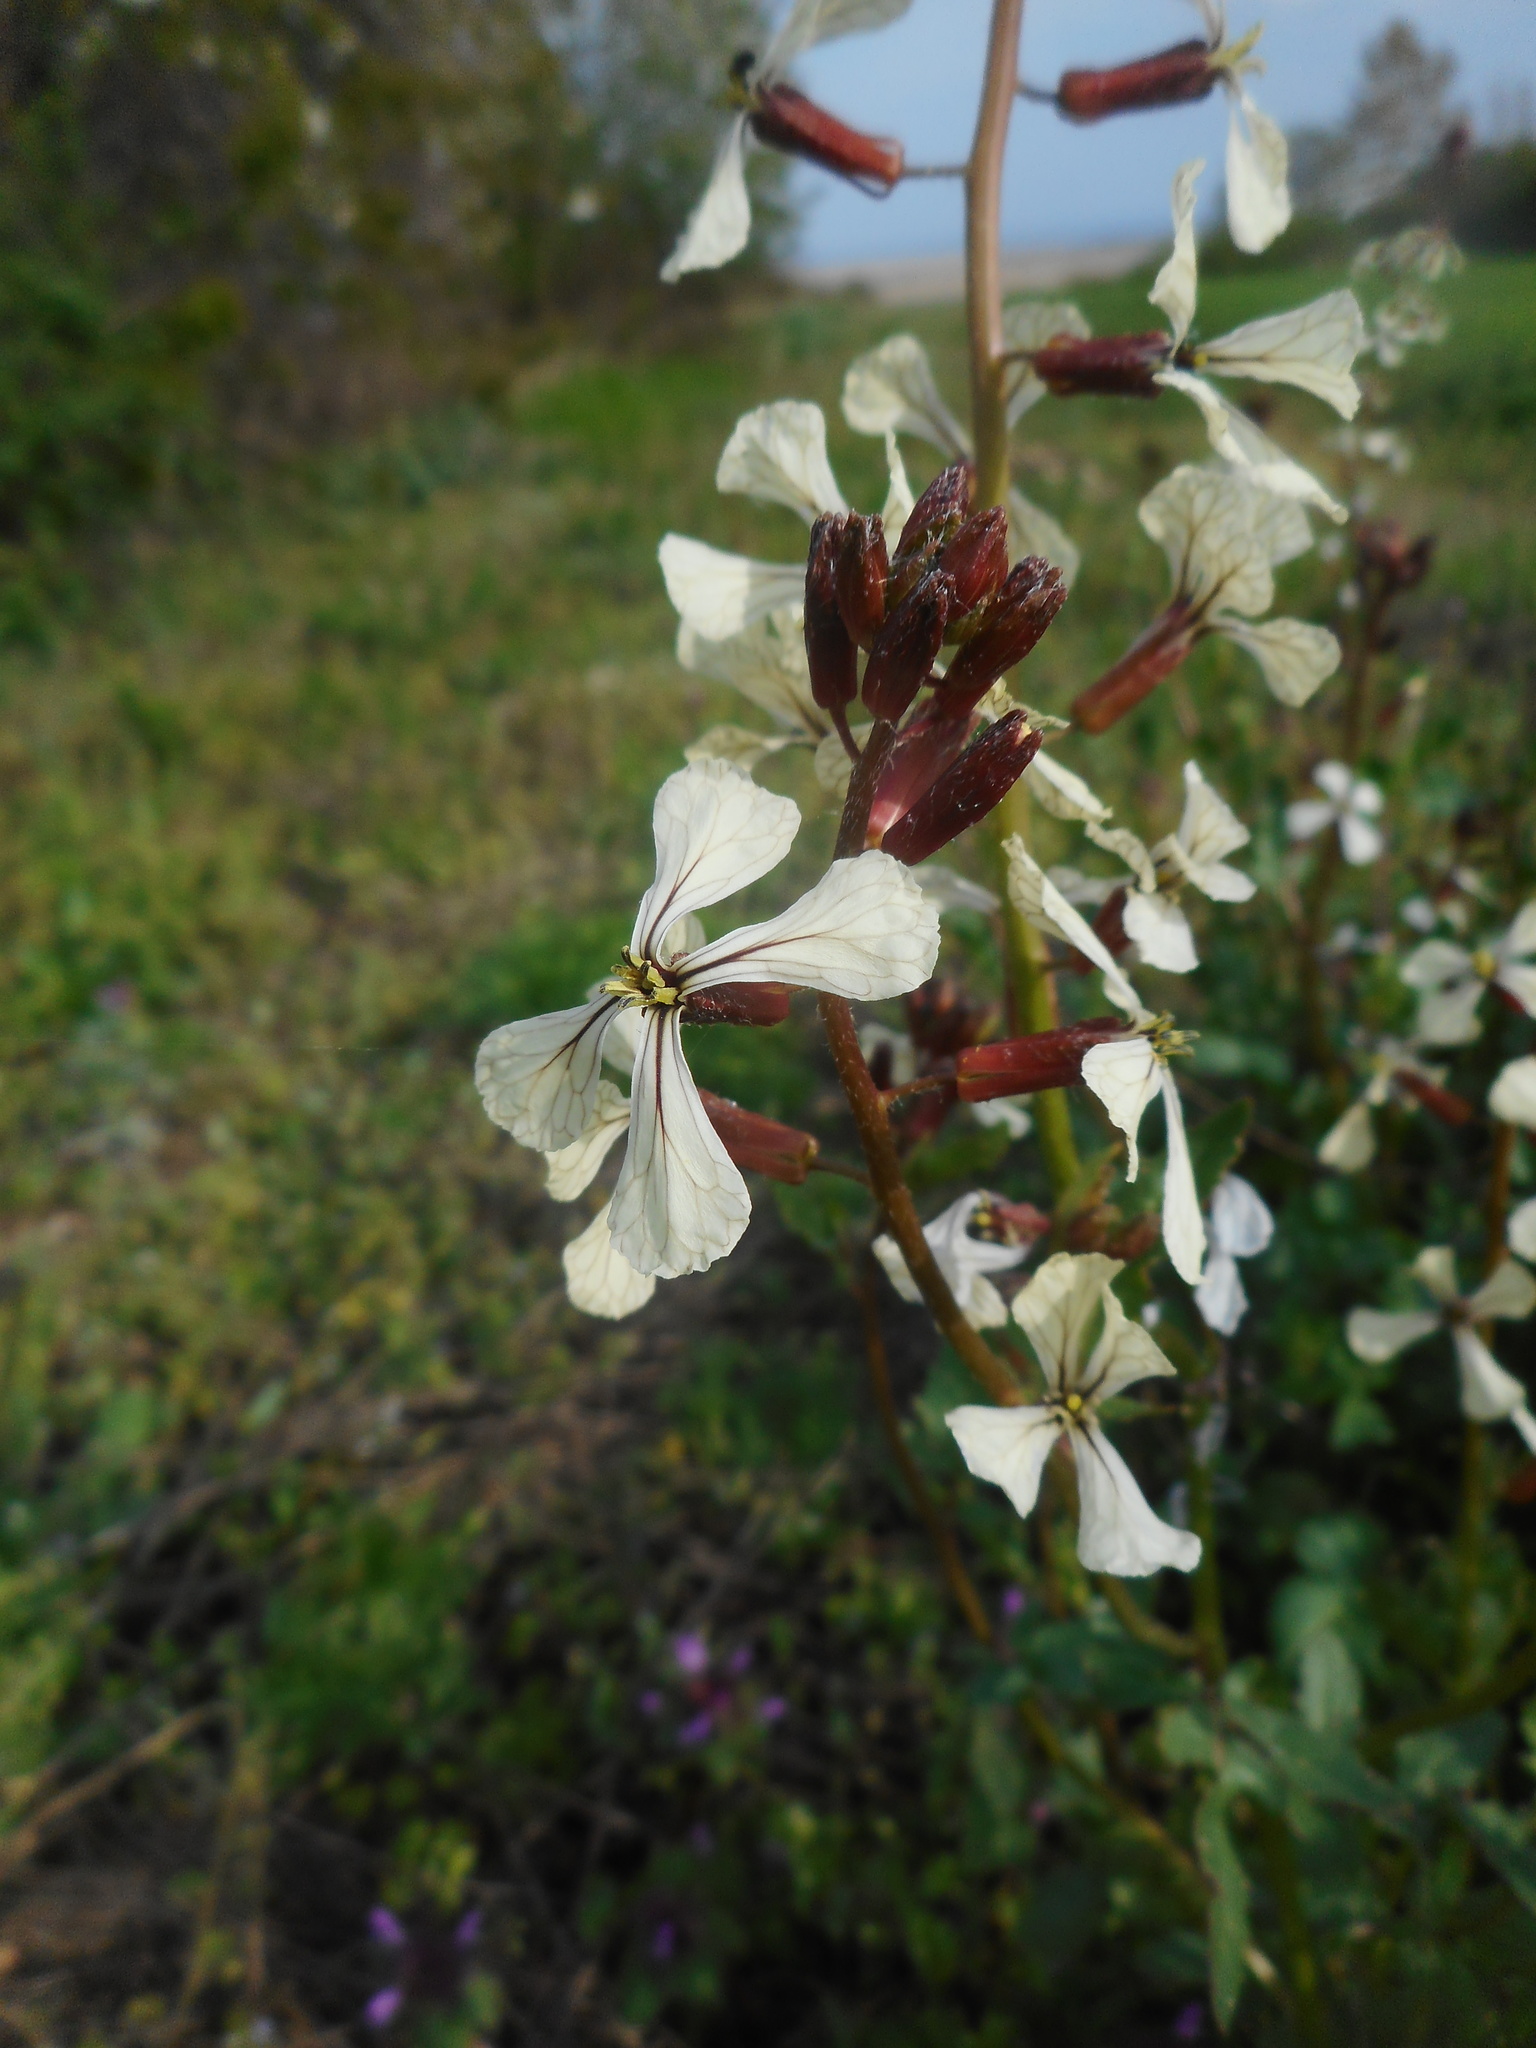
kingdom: Plantae
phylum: Tracheophyta
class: Magnoliopsida
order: Brassicales
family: Brassicaceae
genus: Eruca
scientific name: Eruca vesicaria
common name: Garden rocket
